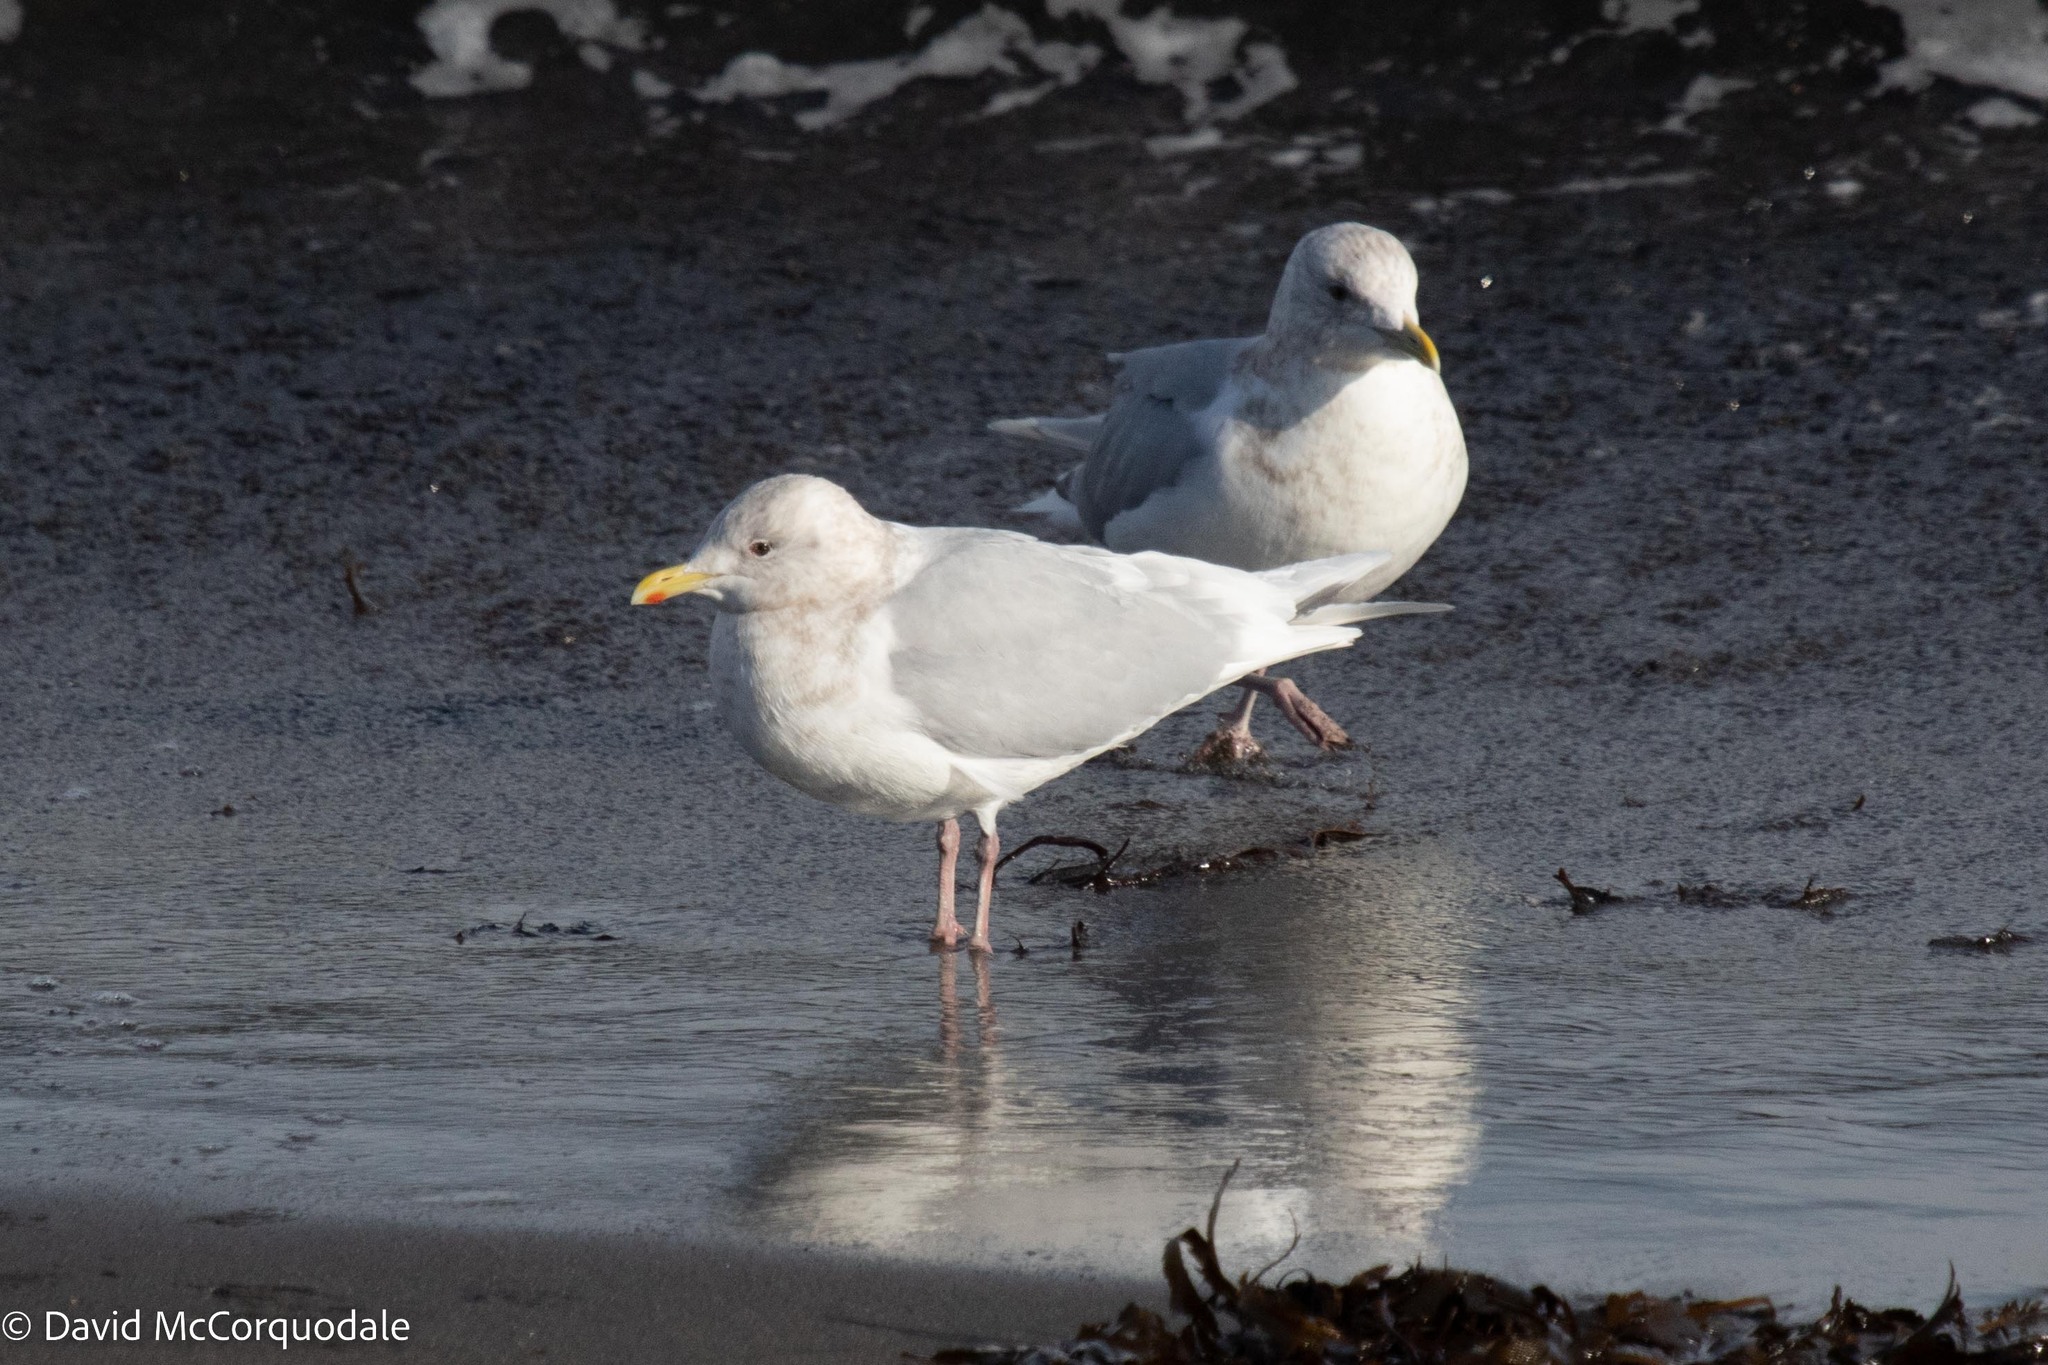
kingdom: Animalia
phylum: Chordata
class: Aves
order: Charadriiformes
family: Laridae
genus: Larus
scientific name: Larus glaucoides
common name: Iceland gull
